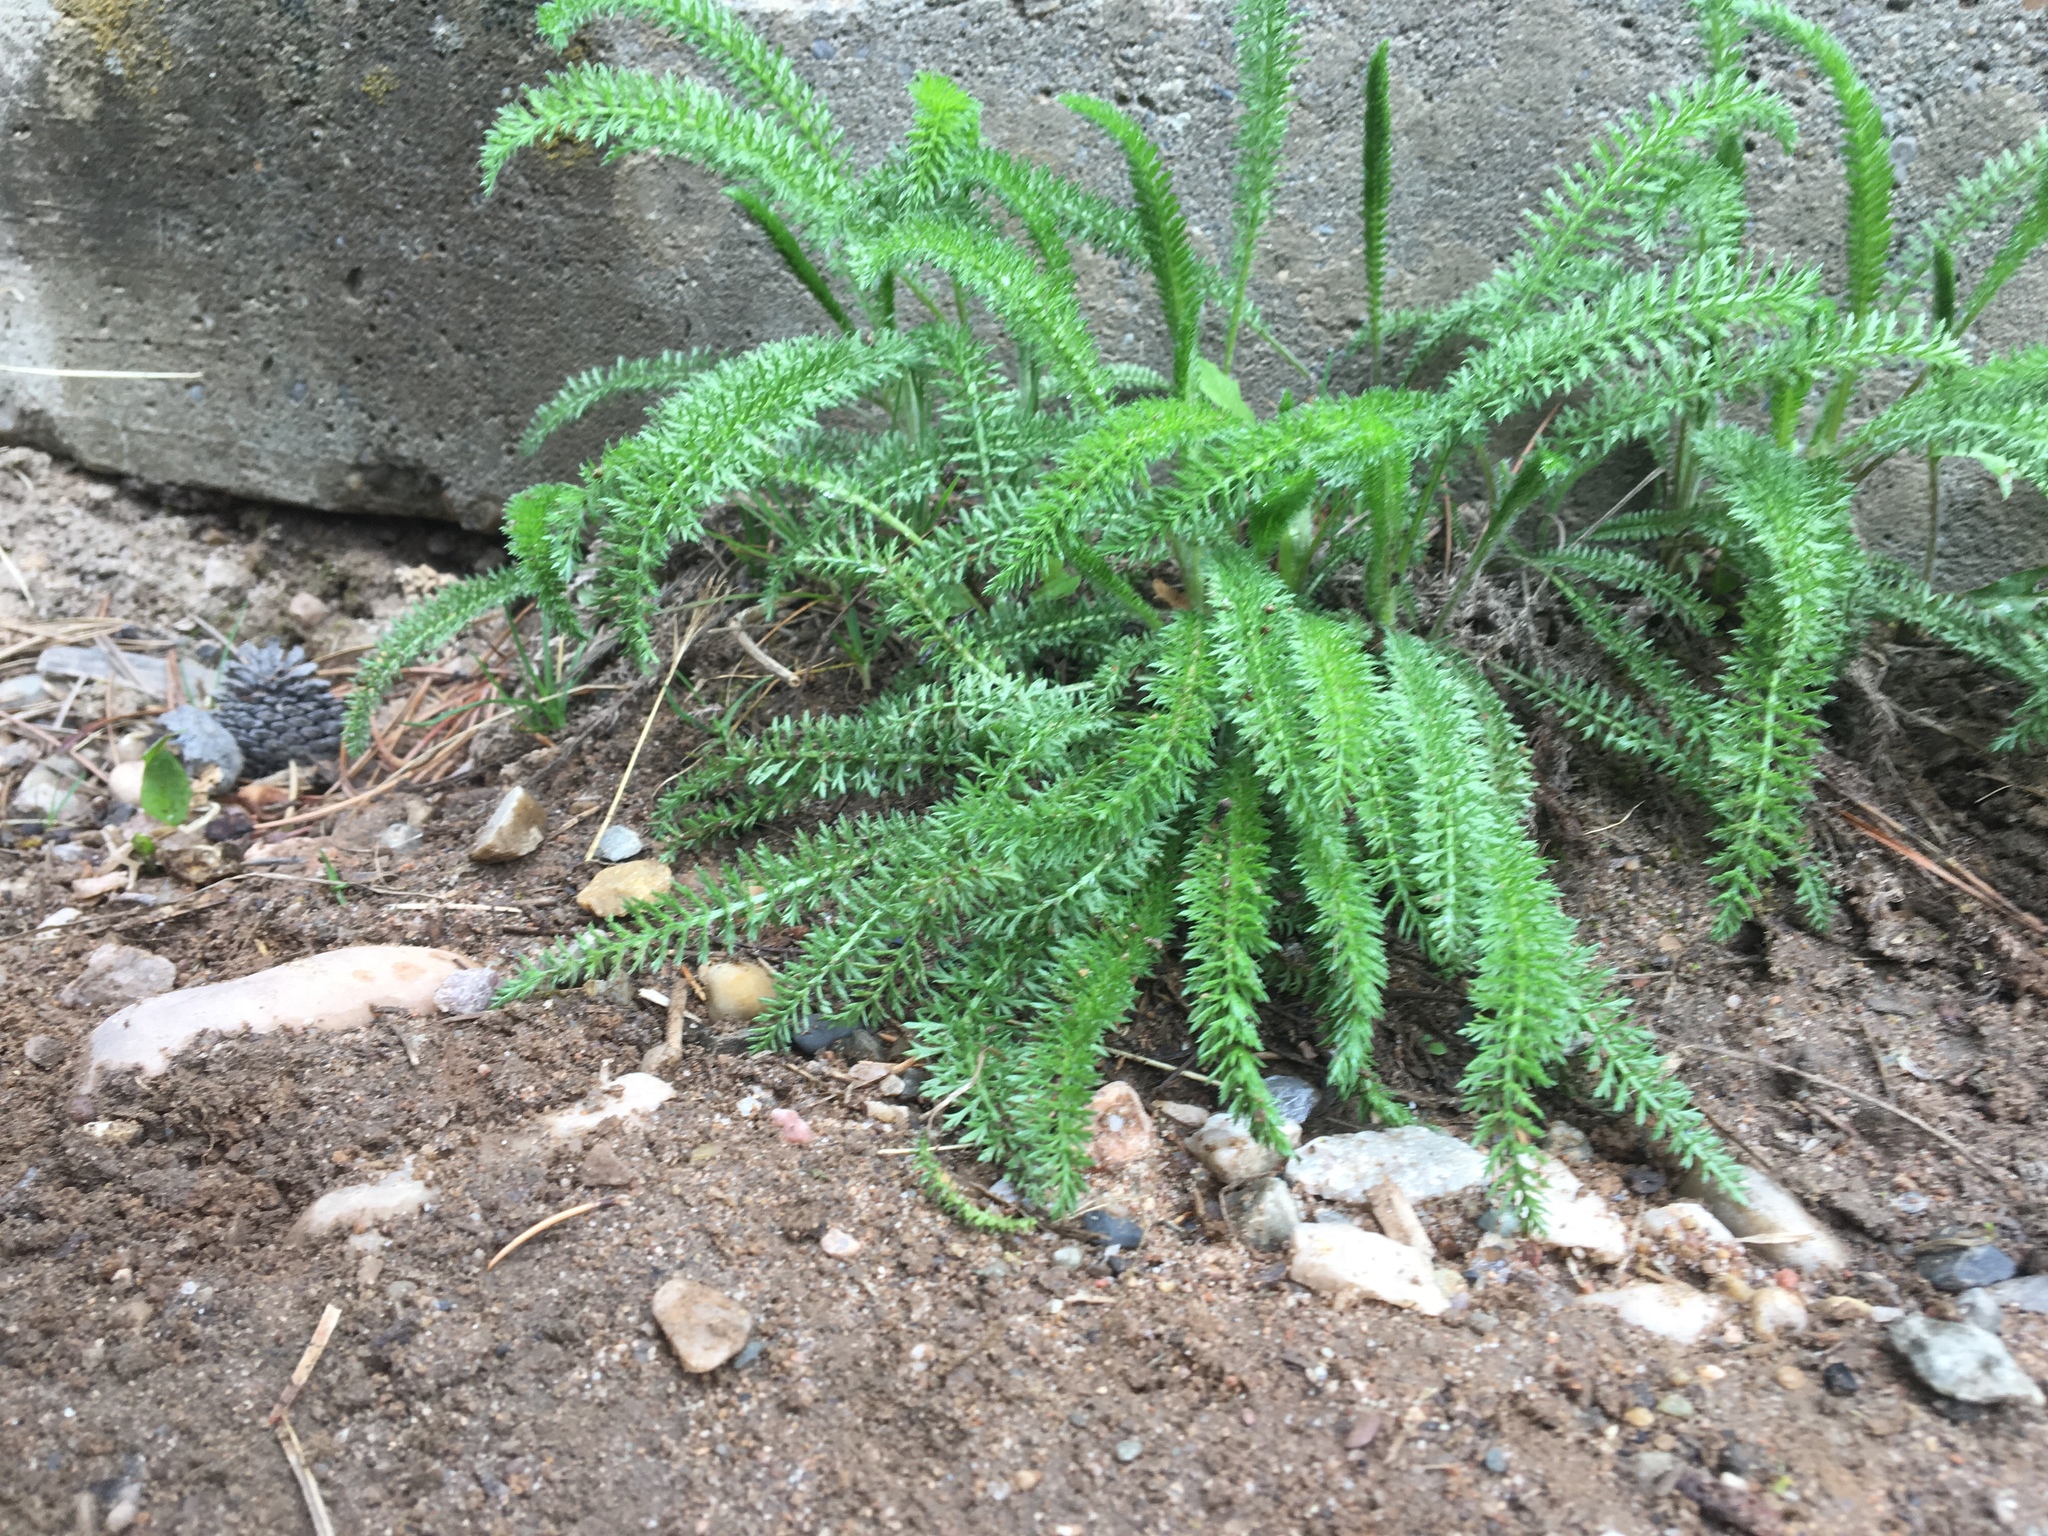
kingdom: Plantae
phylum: Tracheophyta
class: Magnoliopsida
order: Asterales
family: Asteraceae
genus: Achillea
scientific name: Achillea millefolium
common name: Yarrow
